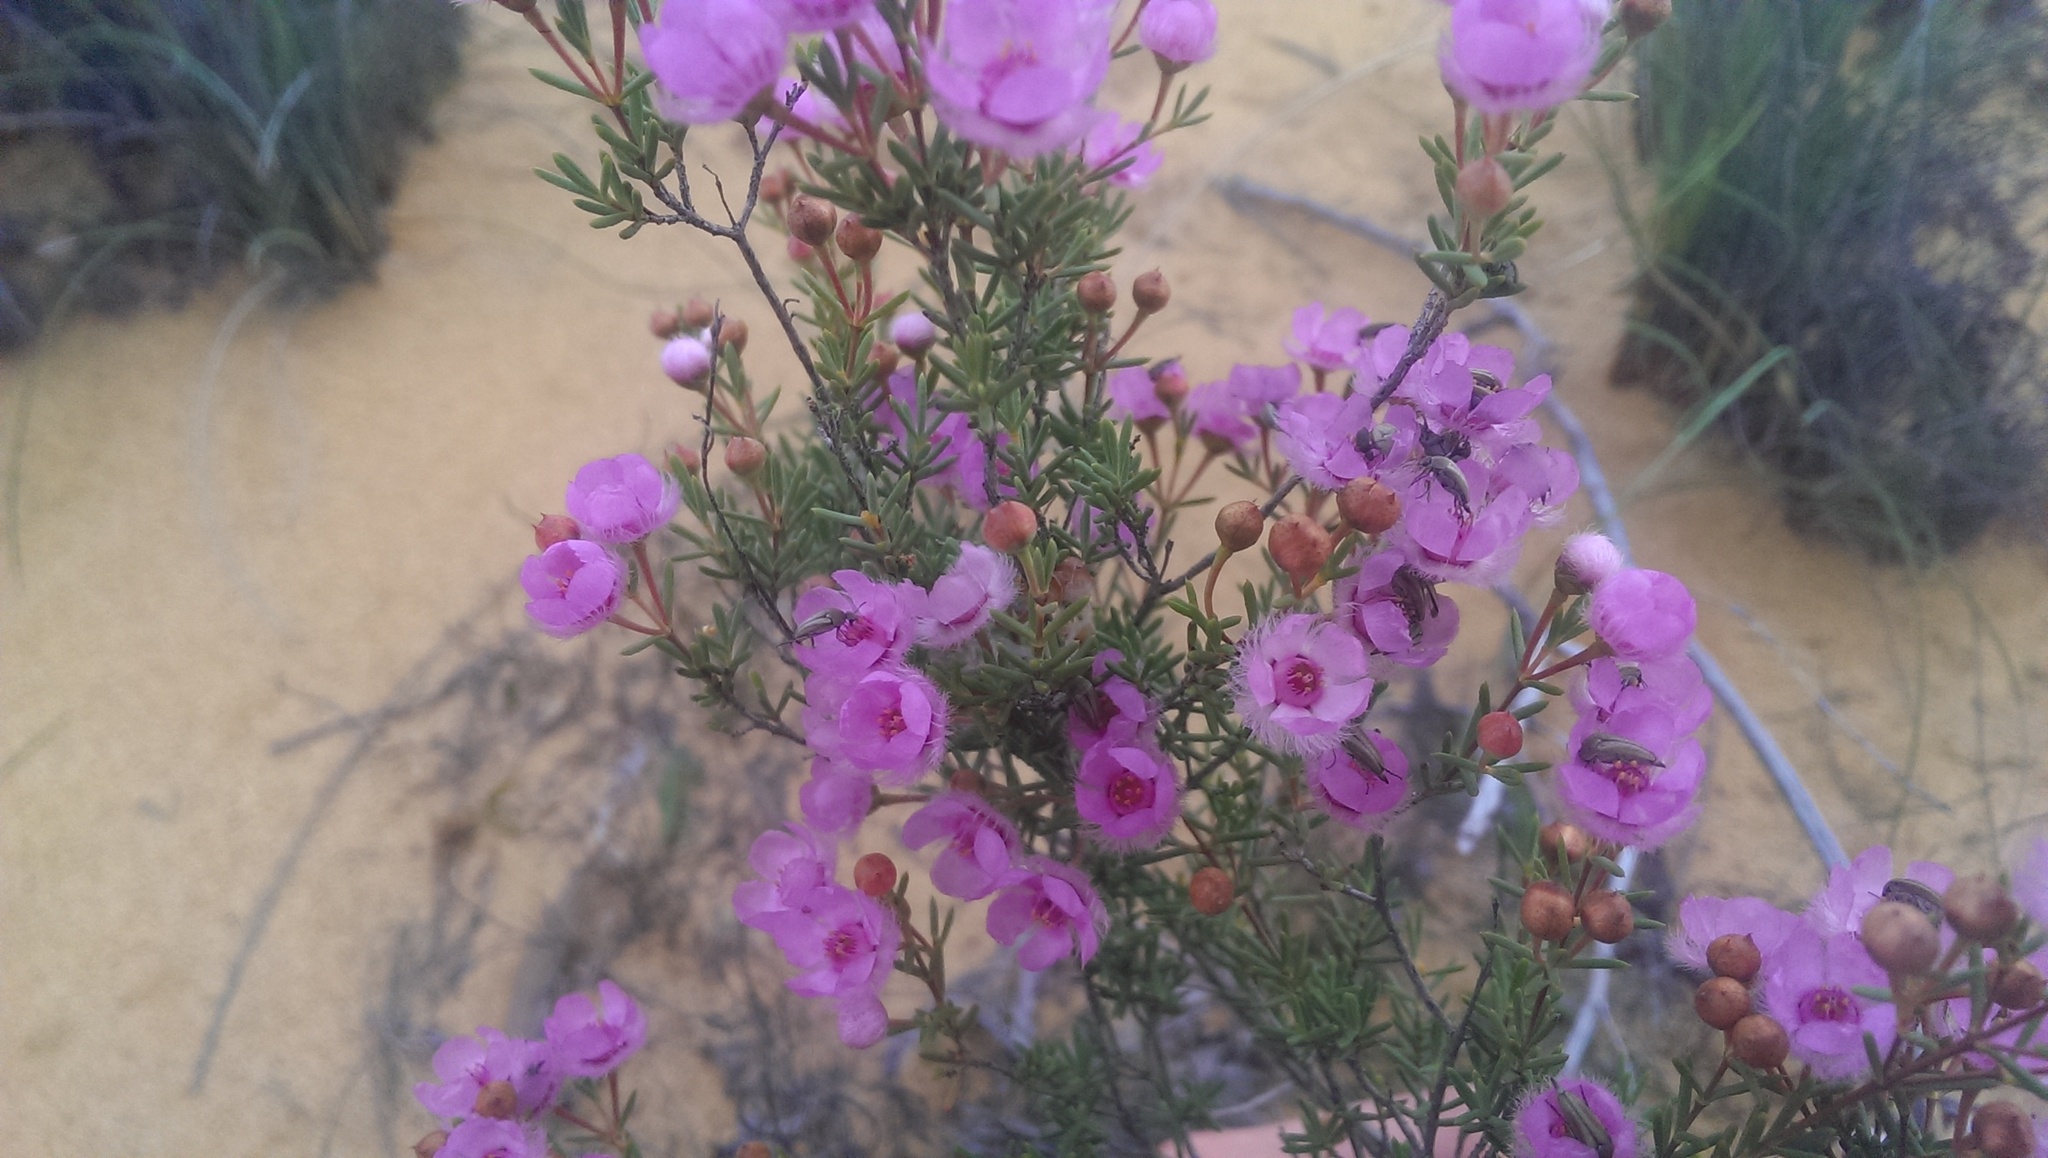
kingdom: Plantae
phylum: Tracheophyta
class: Magnoliopsida
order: Myrtales
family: Myrtaceae
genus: Verticordia
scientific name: Verticordia picta
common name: Painted feather-flower
